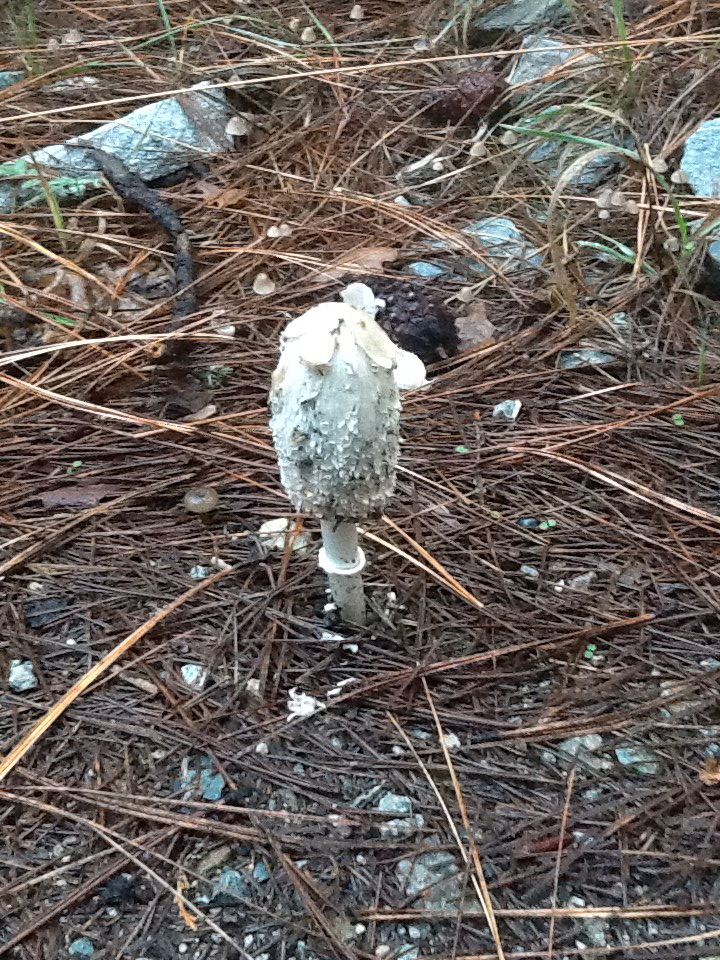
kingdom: Fungi
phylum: Basidiomycota
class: Agaricomycetes
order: Agaricales
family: Agaricaceae
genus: Coprinus
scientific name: Coprinus comatus
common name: Lawyer's wig
